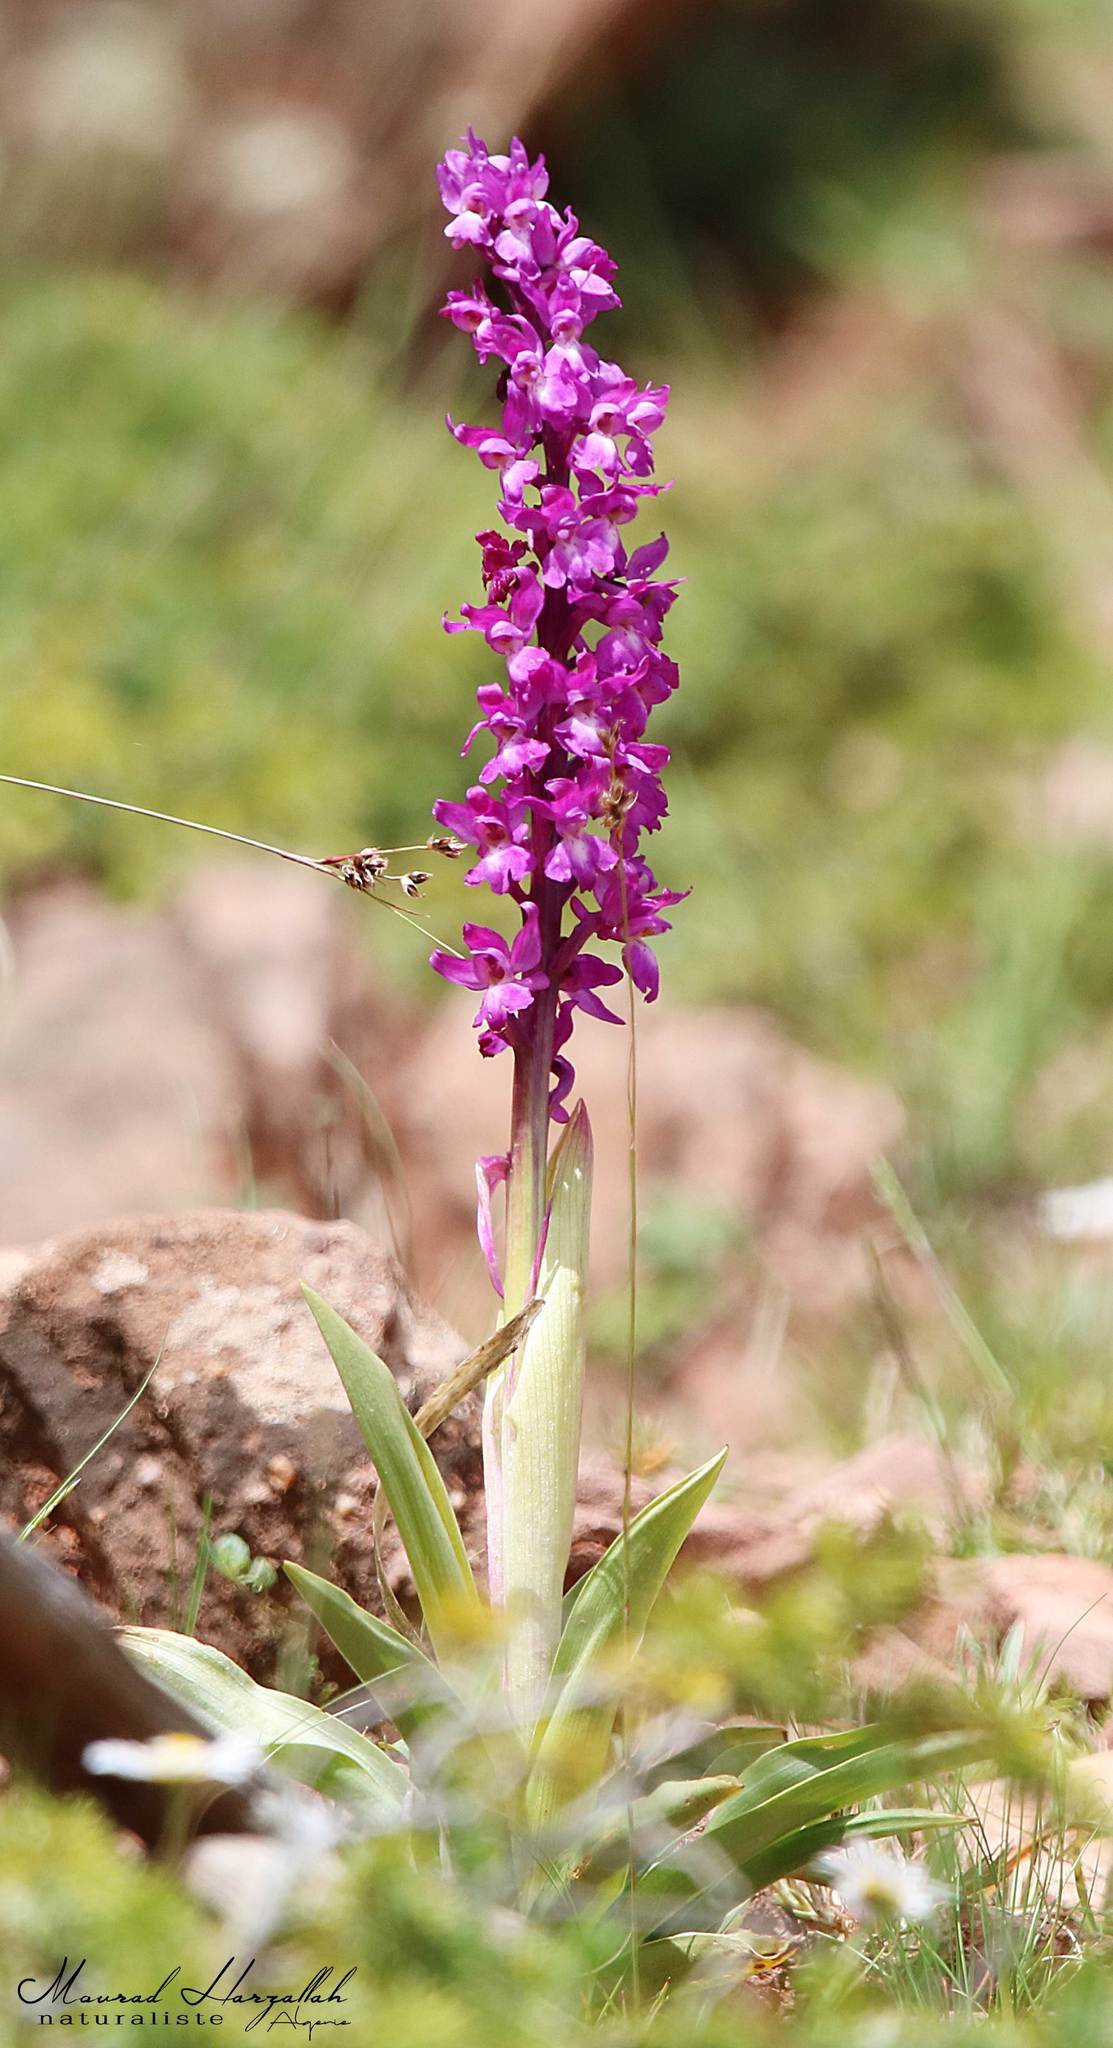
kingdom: Plantae
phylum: Tracheophyta
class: Liliopsida
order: Asparagales
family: Orchidaceae
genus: Orchis
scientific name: Orchis mascula
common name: Early-purple orchid
